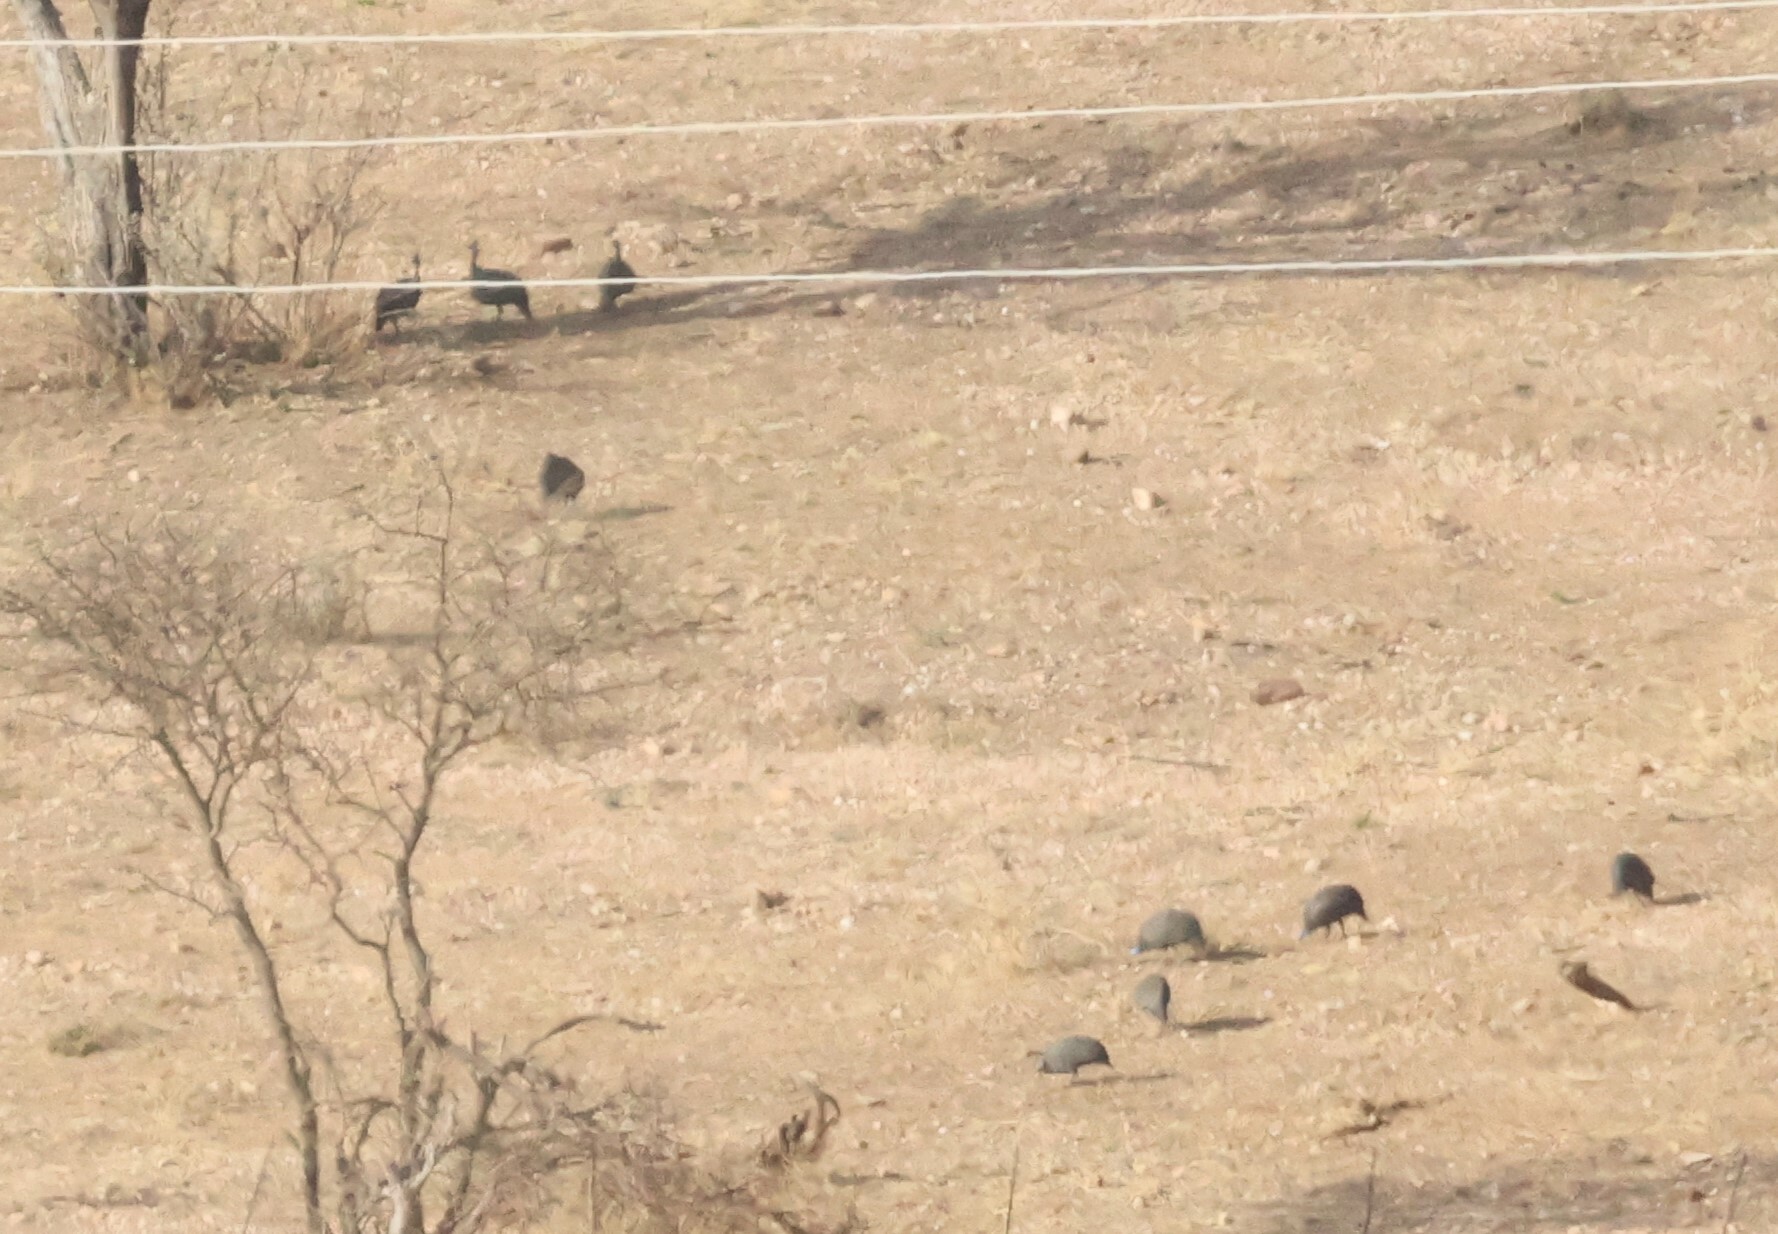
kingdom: Animalia
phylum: Chordata
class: Aves
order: Galliformes
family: Numididae
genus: Numida
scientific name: Numida meleagris
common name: Helmeted guineafowl
